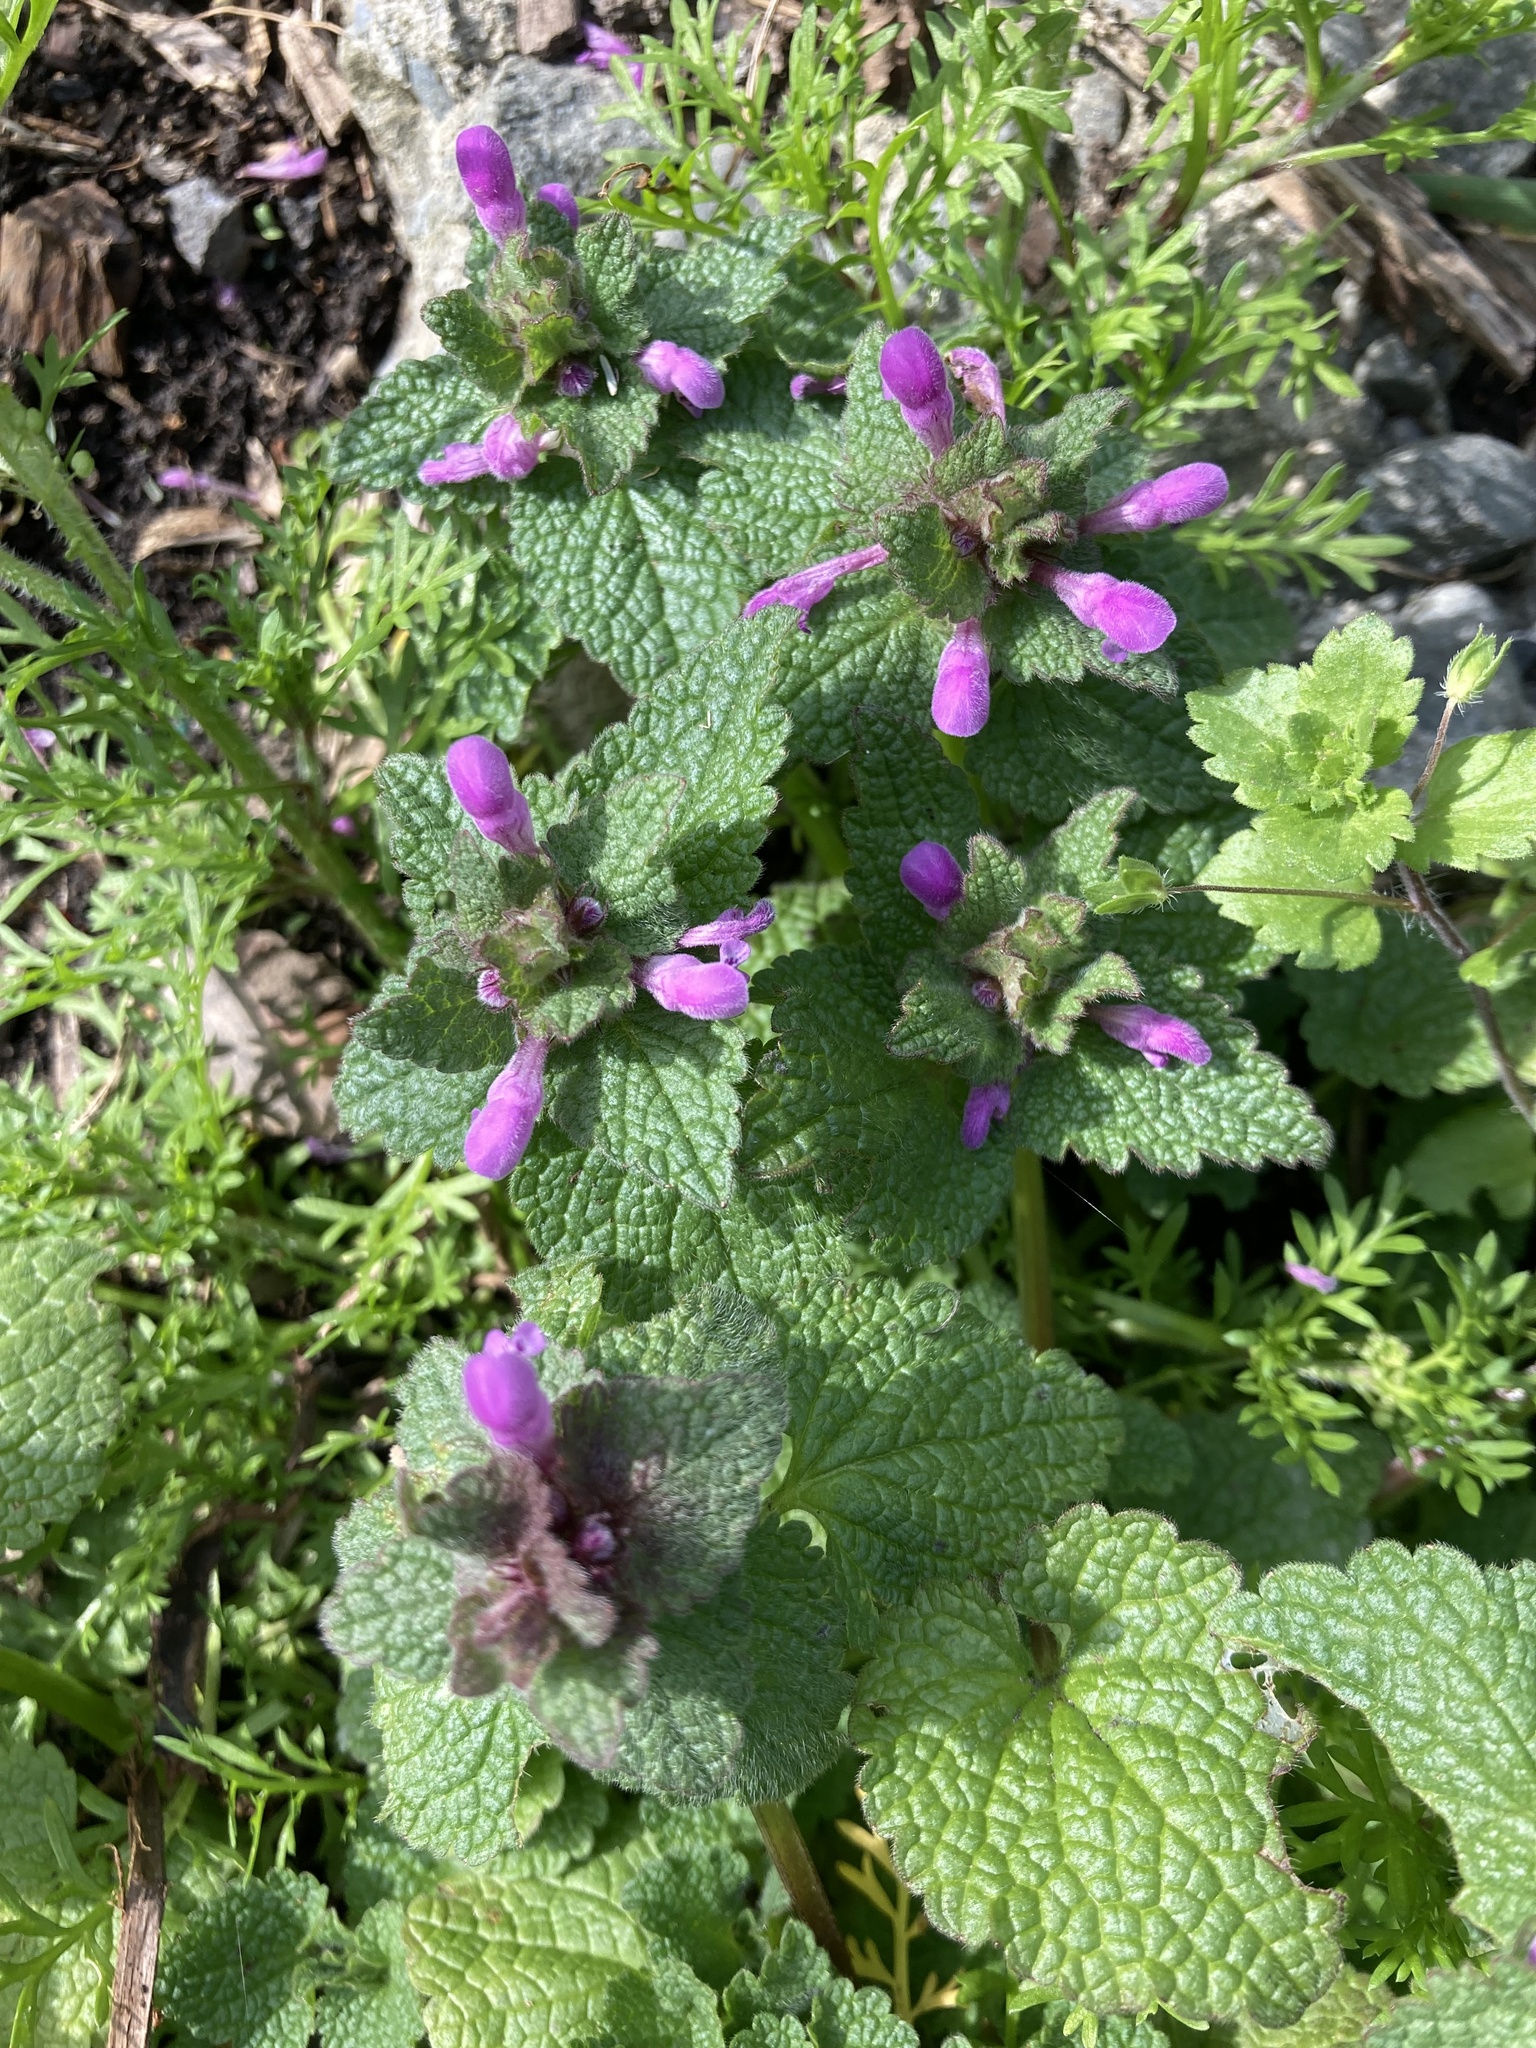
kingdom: Plantae
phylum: Tracheophyta
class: Magnoliopsida
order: Lamiales
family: Lamiaceae
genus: Lamium
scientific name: Lamium purpureum
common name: Red dead-nettle
